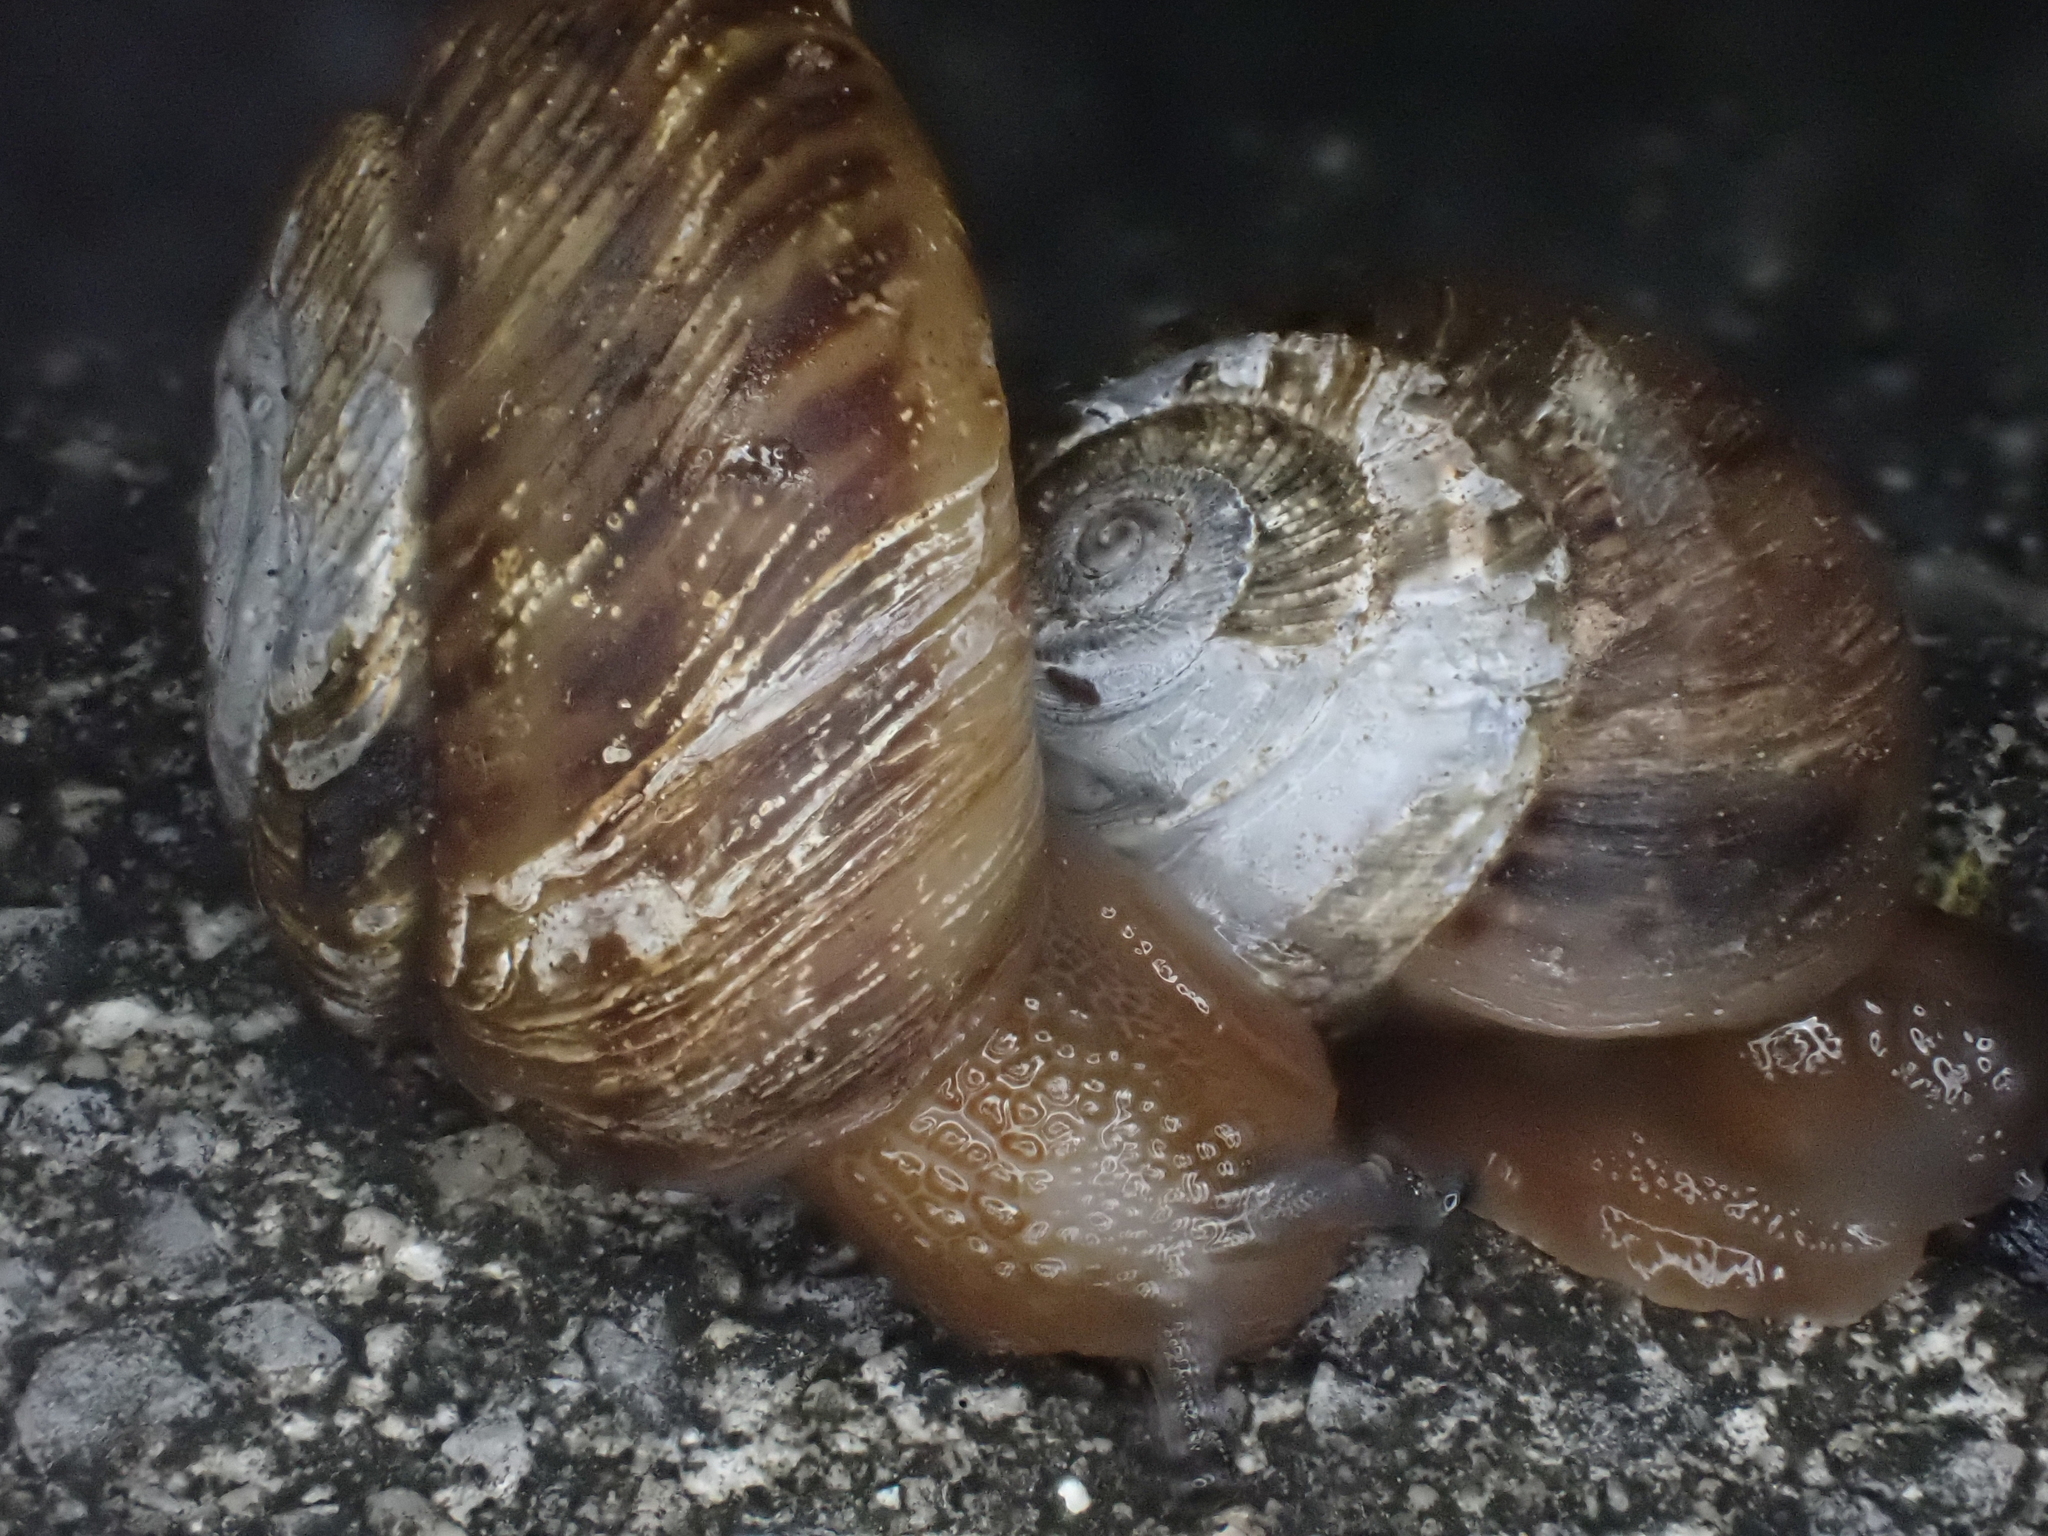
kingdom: Animalia
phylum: Mollusca
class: Gastropoda
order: Stylommatophora
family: Discidae
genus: Anguispira
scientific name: Anguispira alternata
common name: Flamed tigersnail
